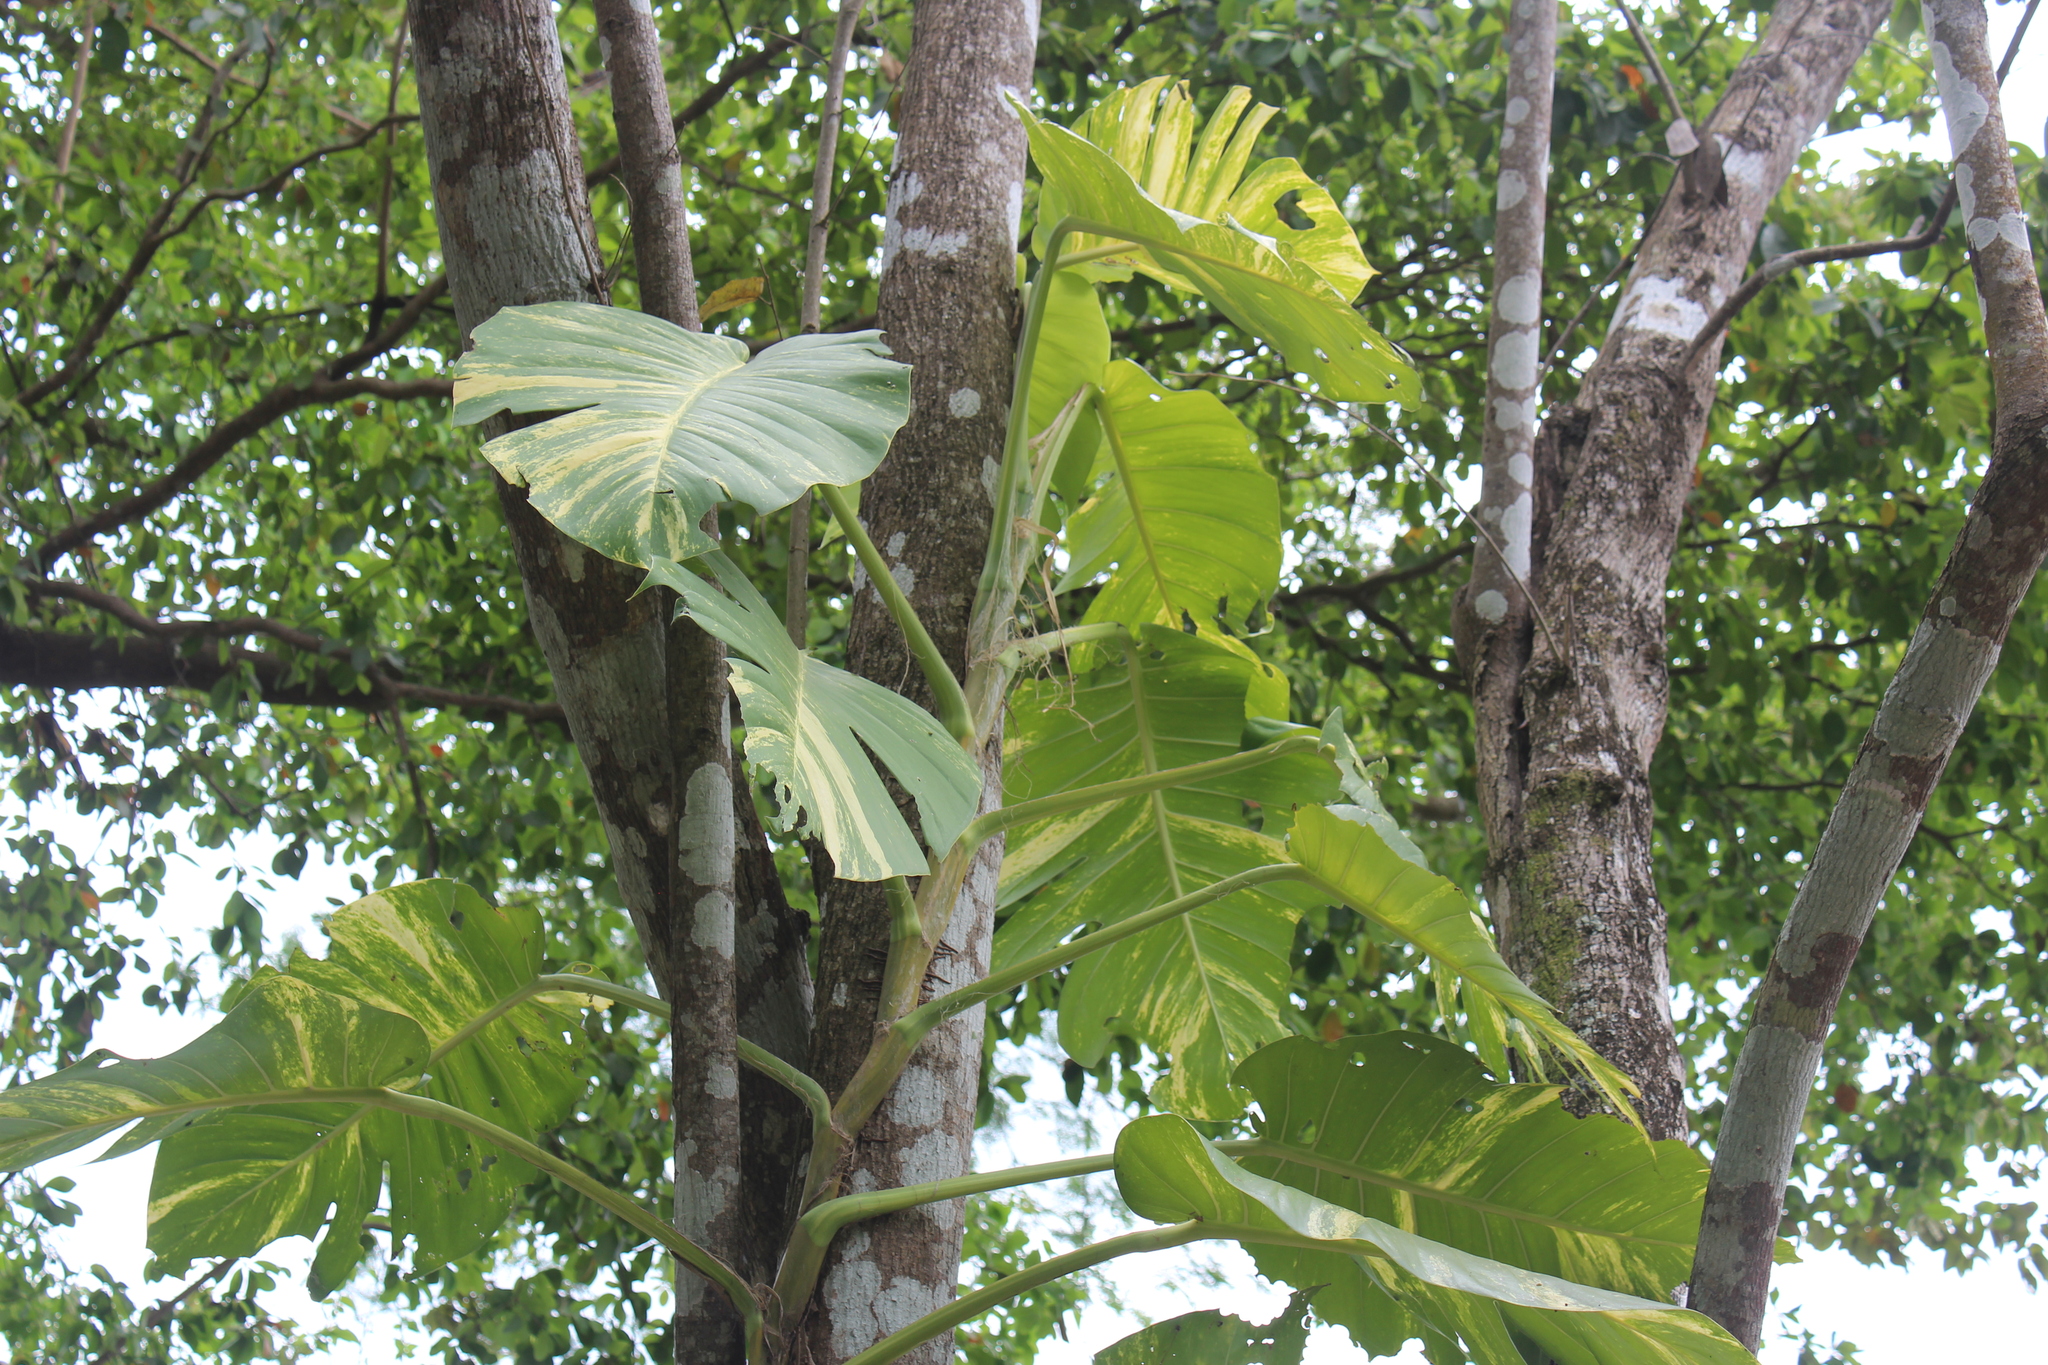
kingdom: Plantae
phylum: Tracheophyta
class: Liliopsida
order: Alismatales
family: Araceae
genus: Epipremnum
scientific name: Epipremnum aureum
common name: Golden hunter's-robe
